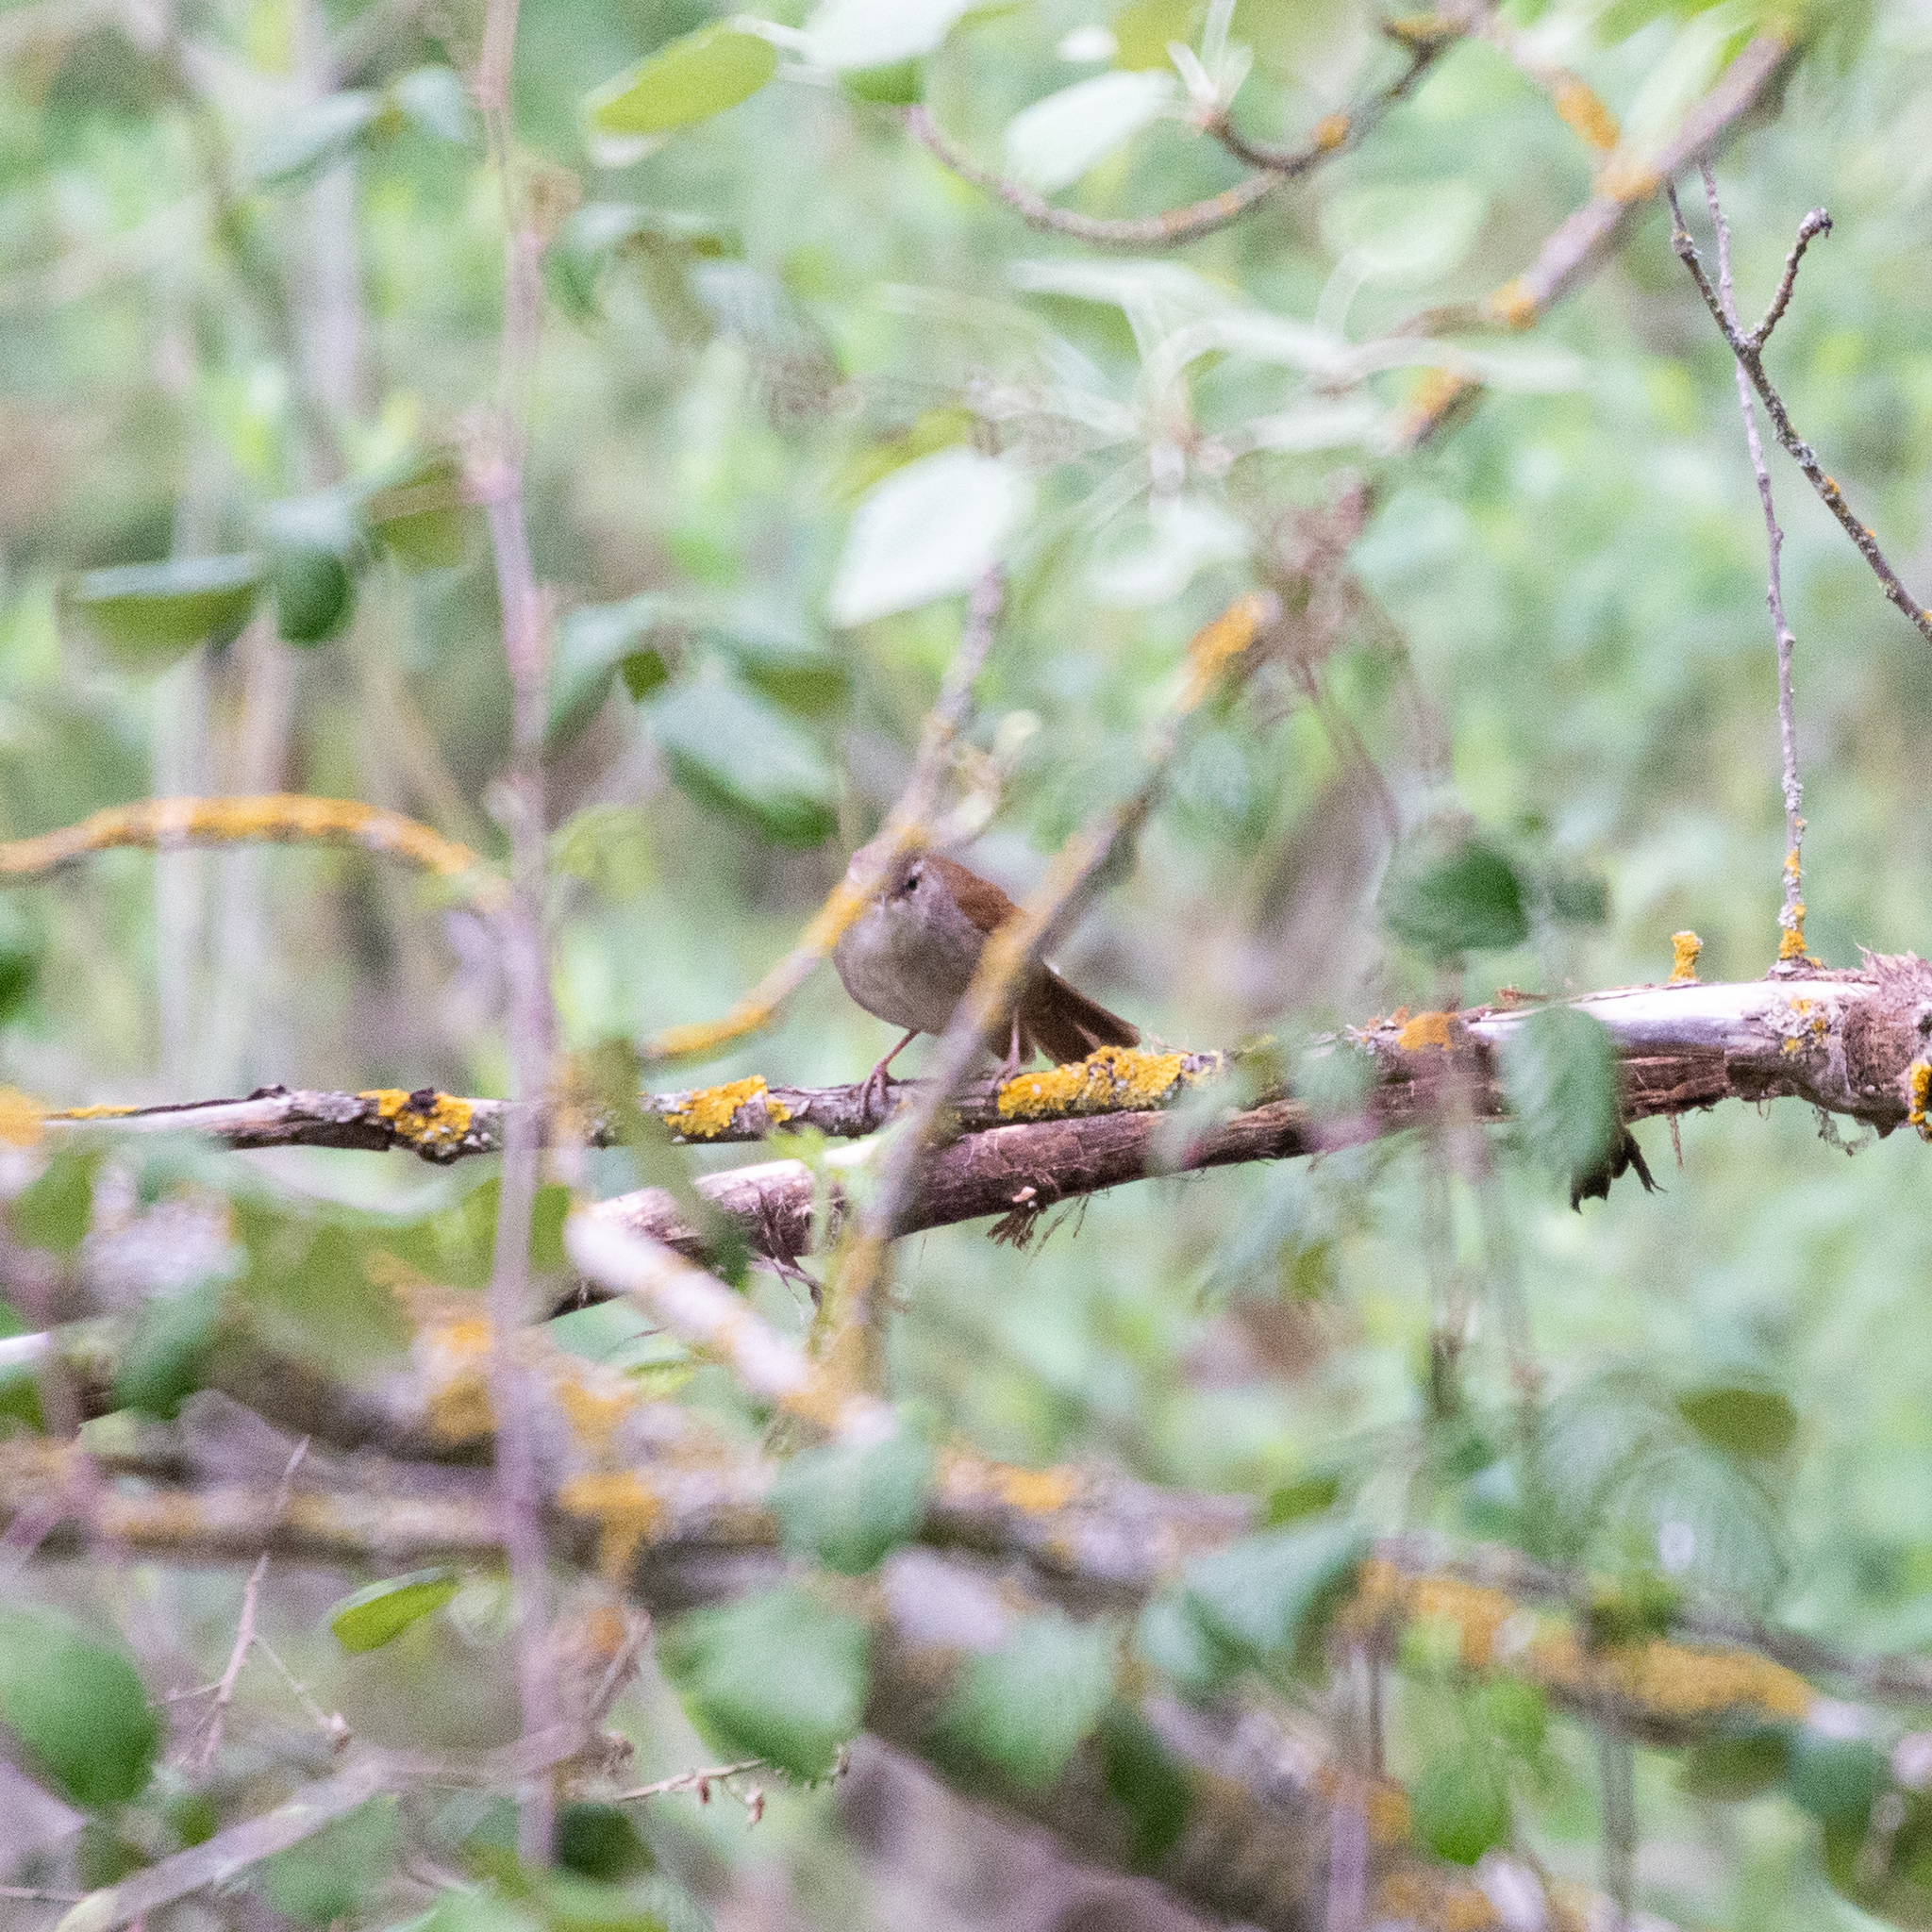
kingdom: Animalia
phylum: Chordata
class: Aves
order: Passeriformes
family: Cettiidae
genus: Cettia
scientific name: Cettia cetti
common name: Cetti's warbler
